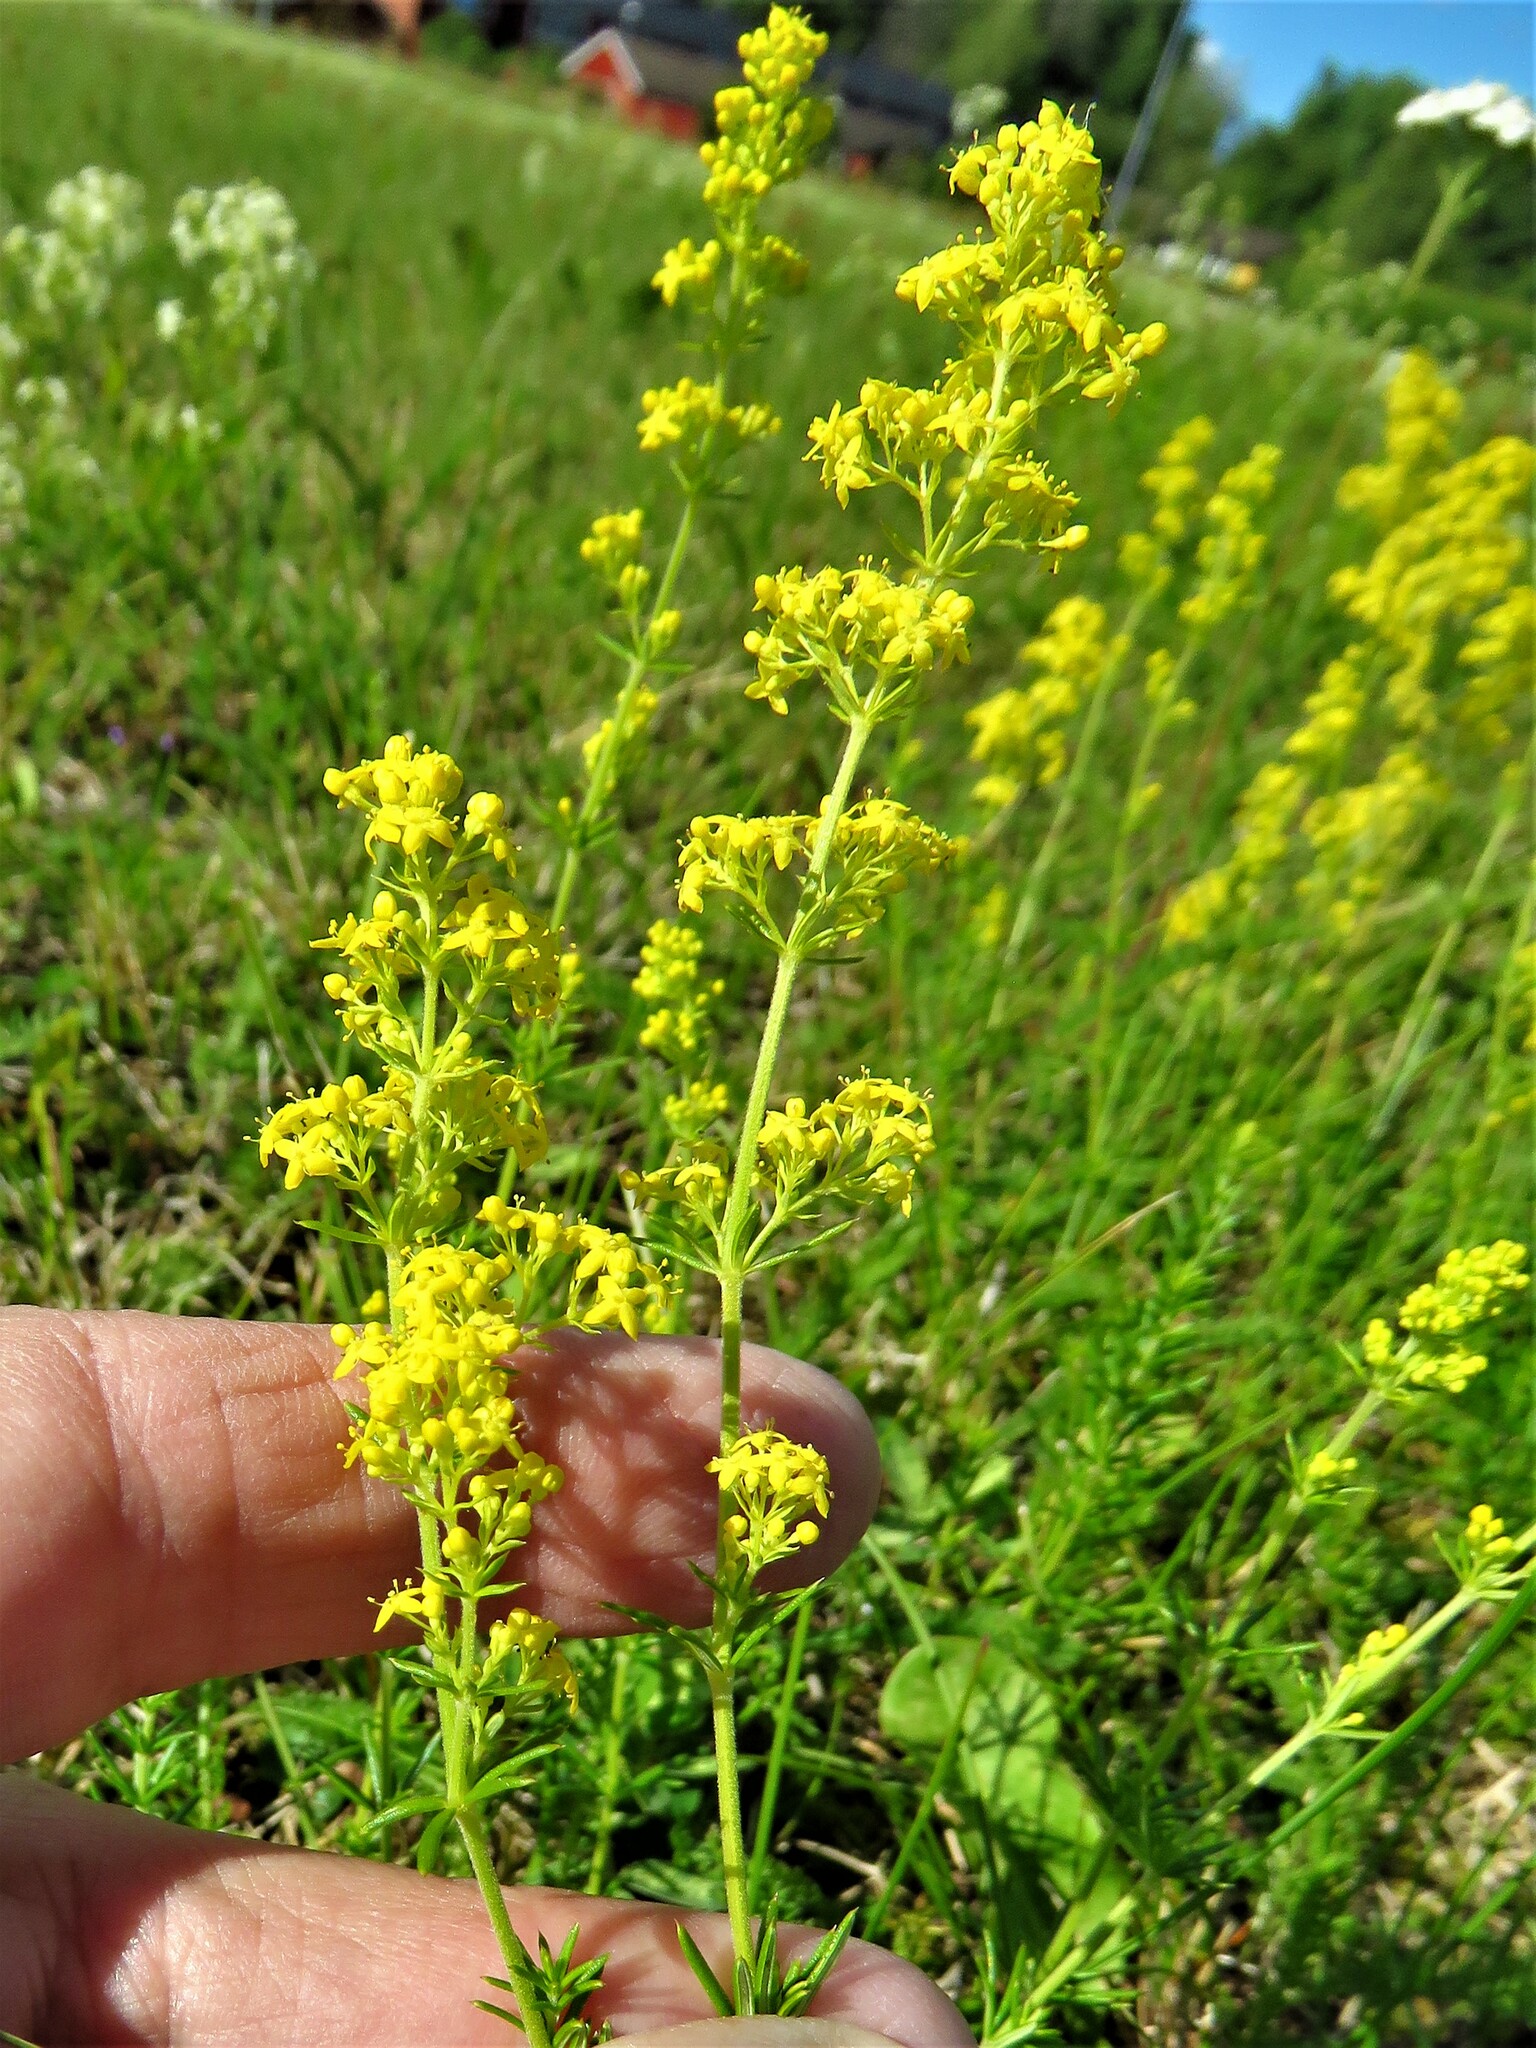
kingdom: Plantae
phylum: Tracheophyta
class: Magnoliopsida
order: Gentianales
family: Rubiaceae
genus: Galium
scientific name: Galium verum
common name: Lady's bedstraw
